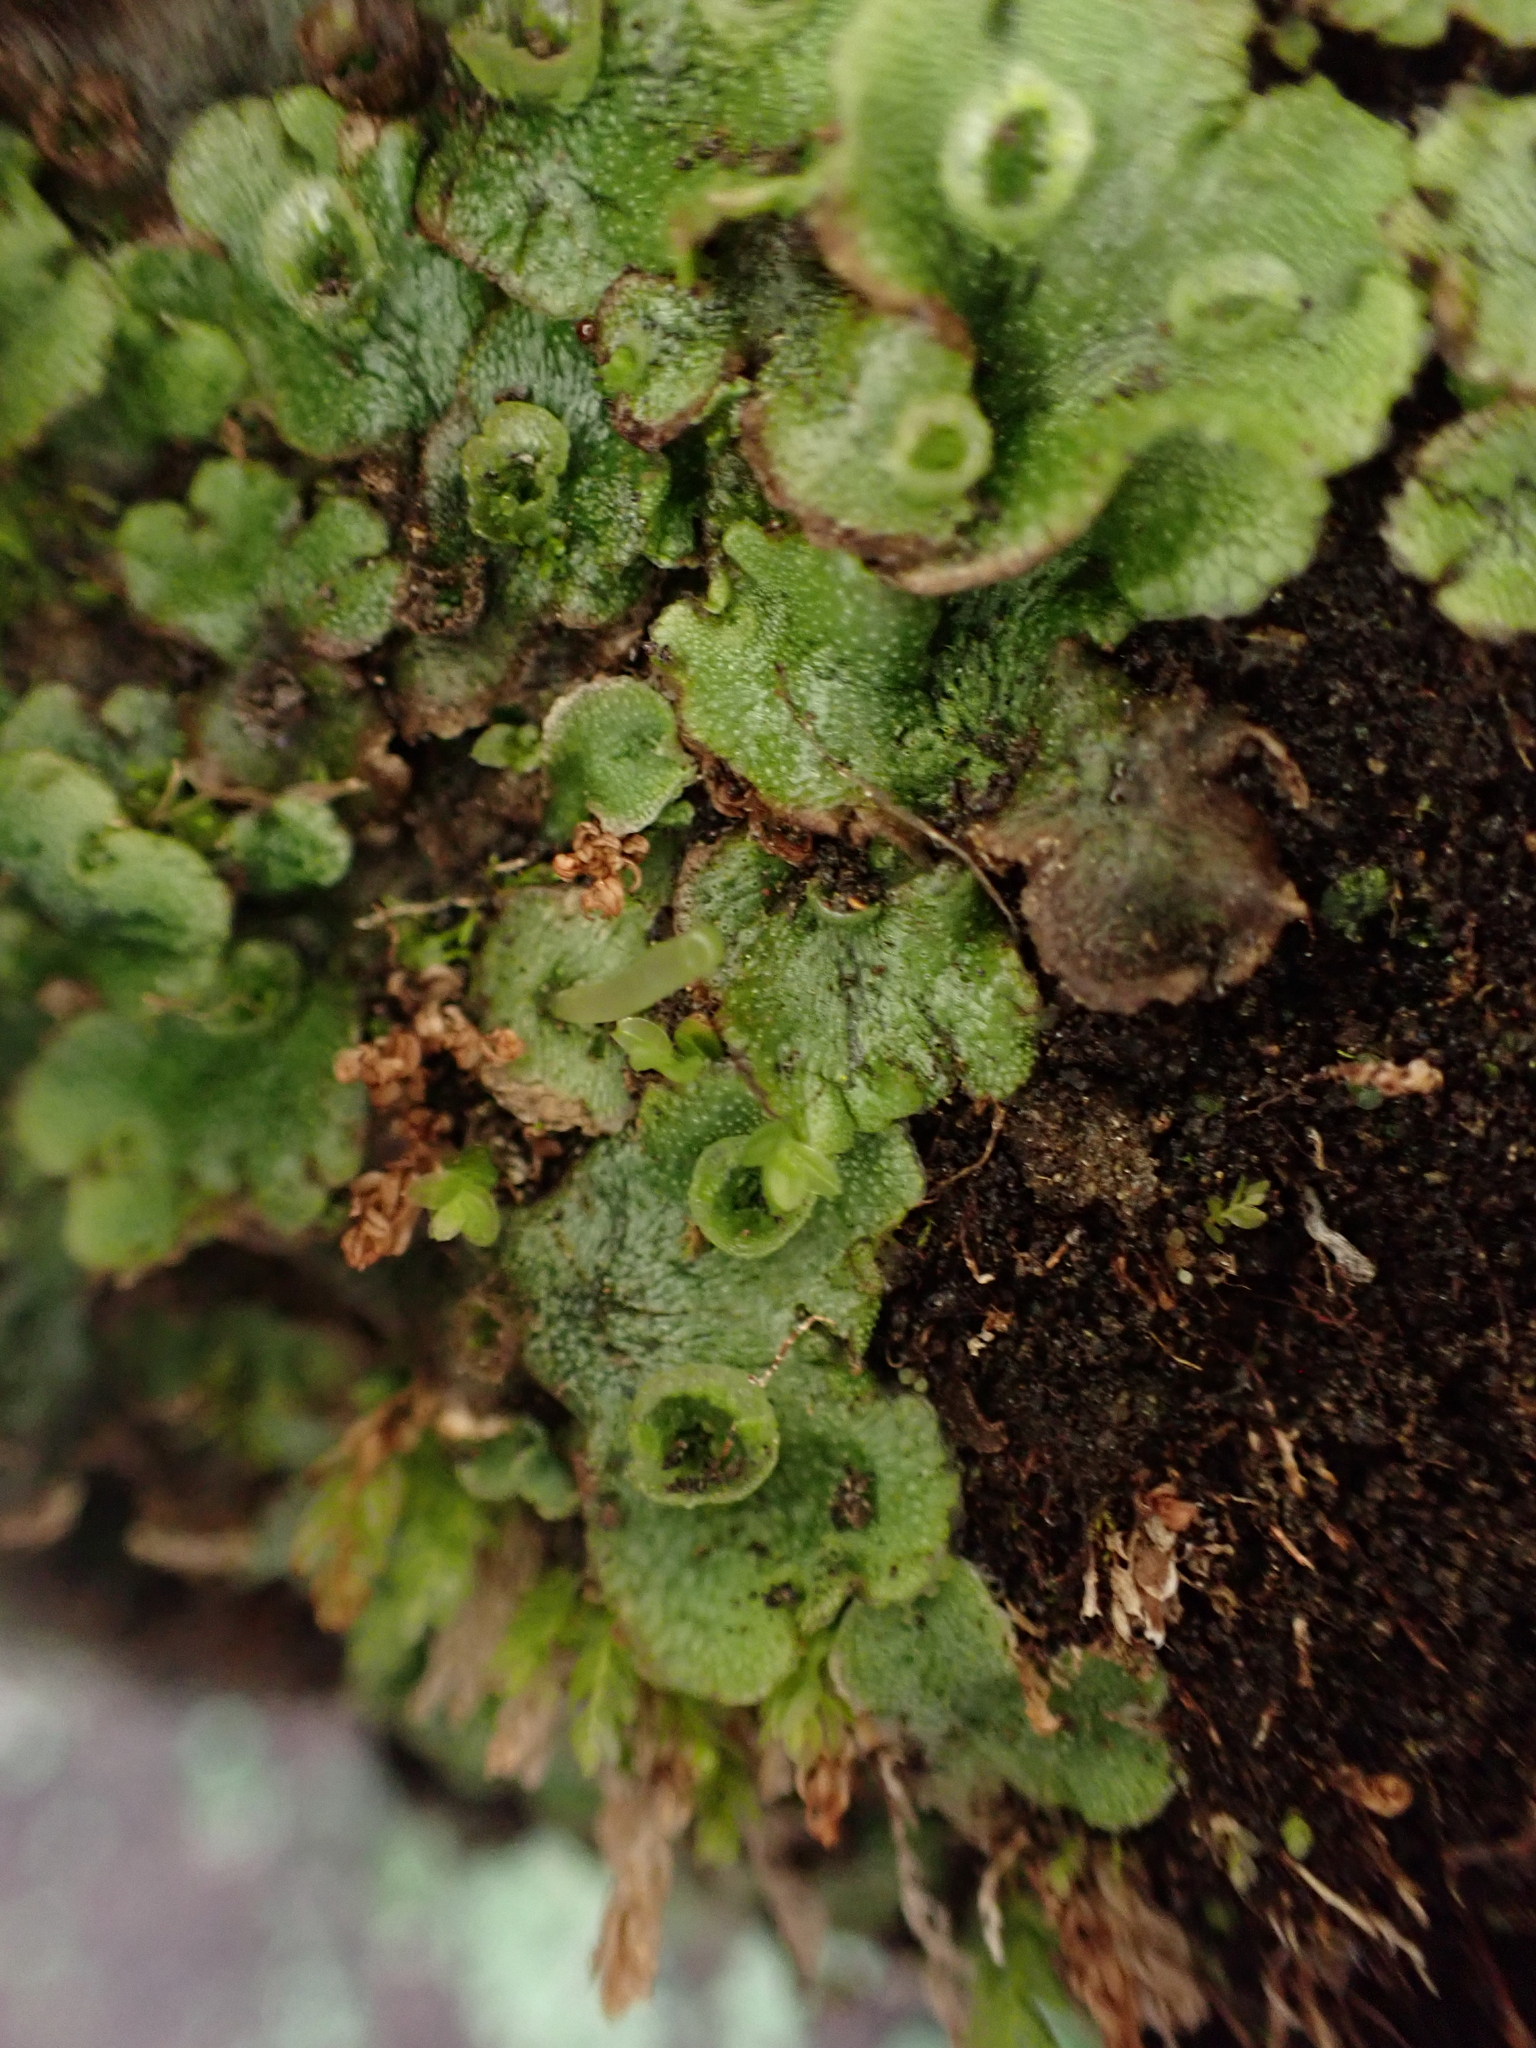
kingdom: Plantae
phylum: Marchantiophyta
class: Marchantiopsida
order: Marchantiales
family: Marchantiaceae
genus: Marchantia
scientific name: Marchantia polymorpha
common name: Common liverwort
